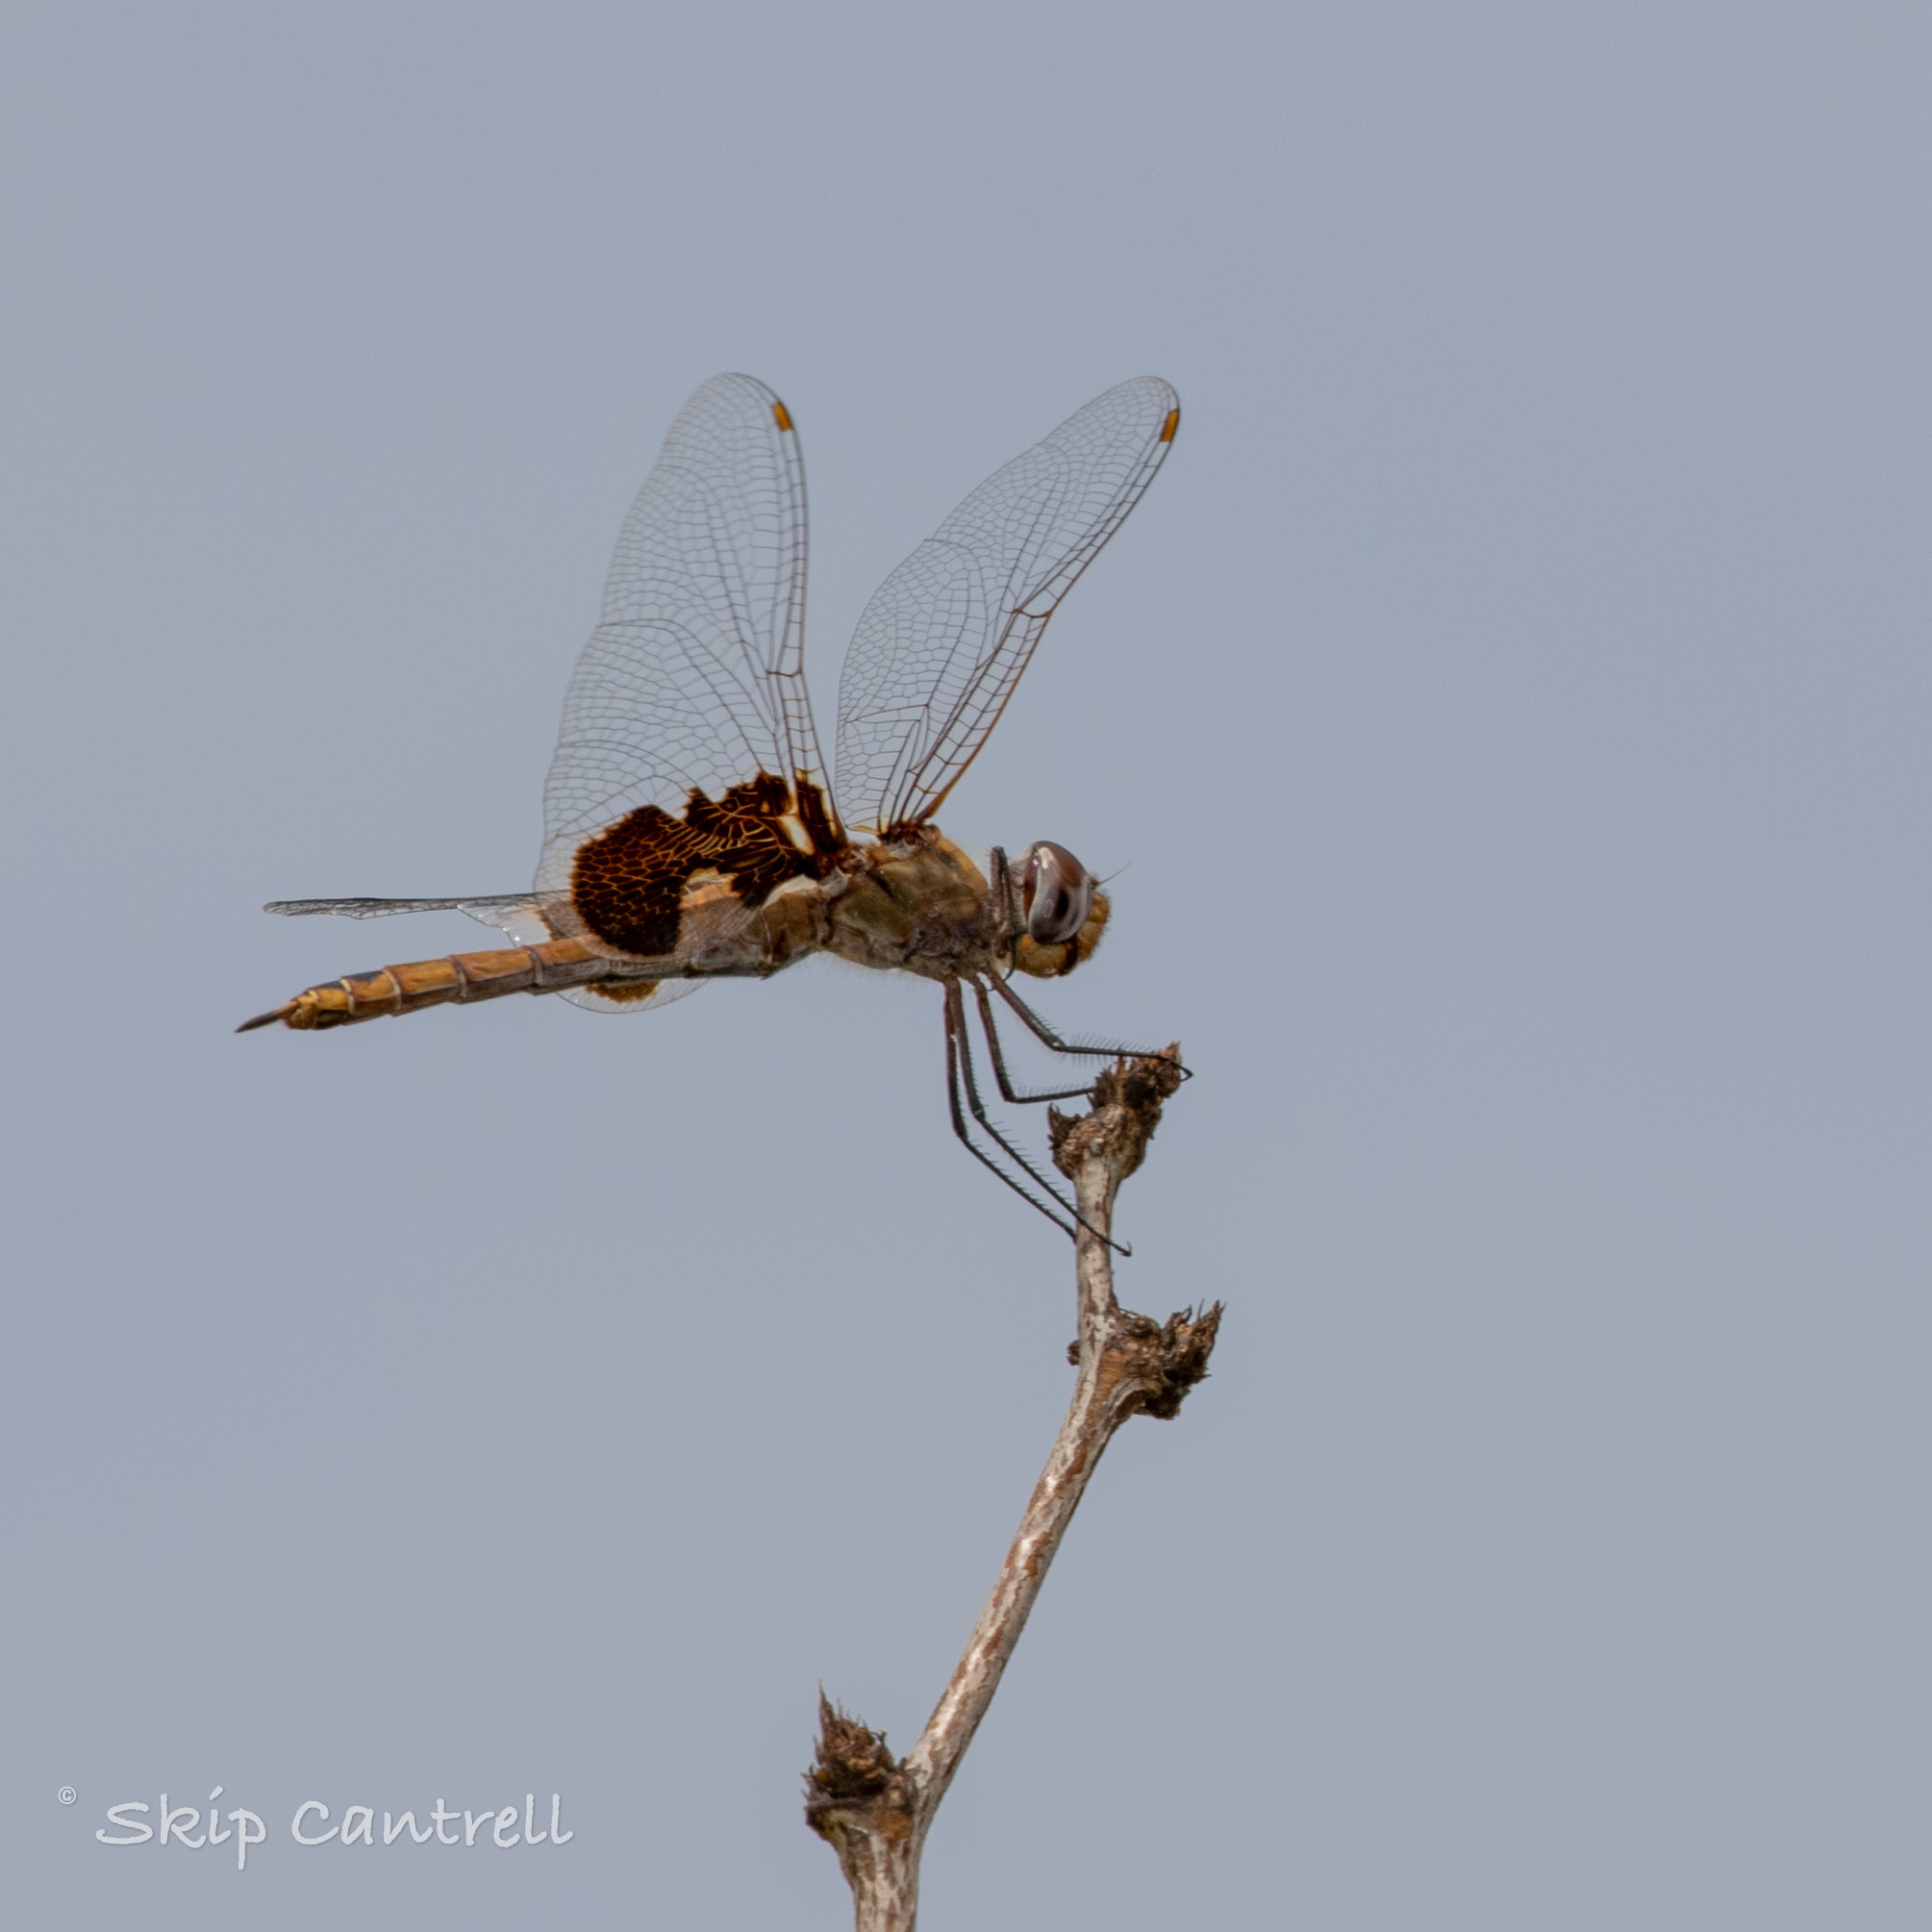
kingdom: Animalia
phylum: Arthropoda
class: Insecta
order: Odonata
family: Libellulidae
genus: Tramea
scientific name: Tramea onusta
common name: Red saddlebags
